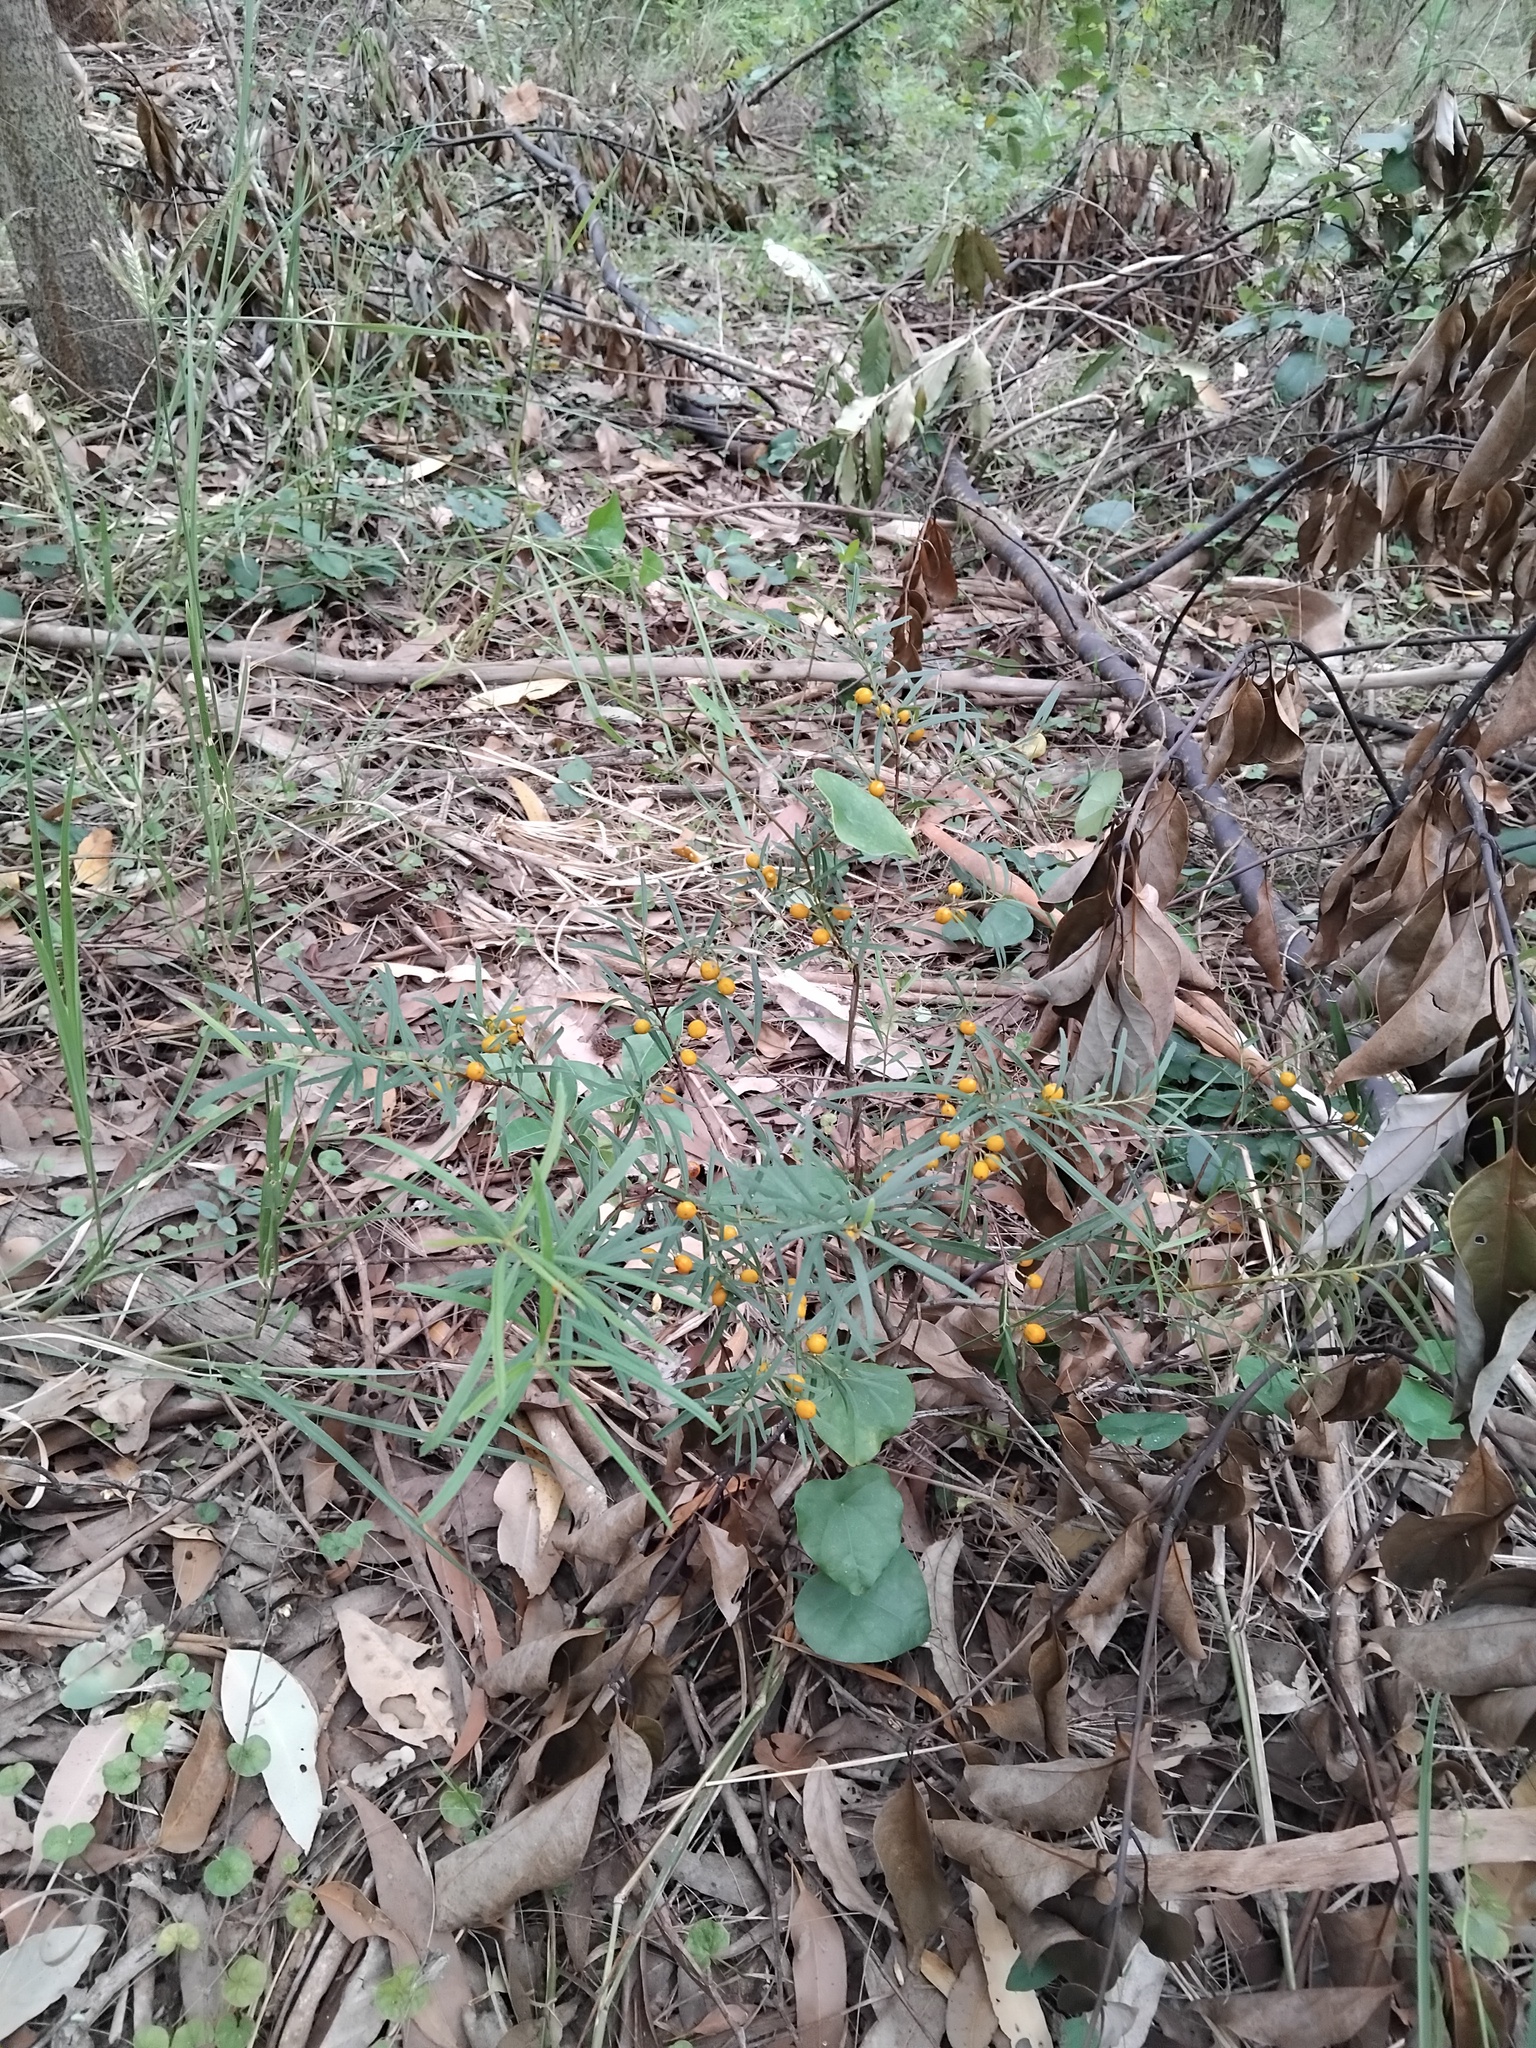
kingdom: Plantae
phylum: Tracheophyta
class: Magnoliopsida
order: Celastrales
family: Celastraceae
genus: Denhamia
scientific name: Denhamia silvestris
